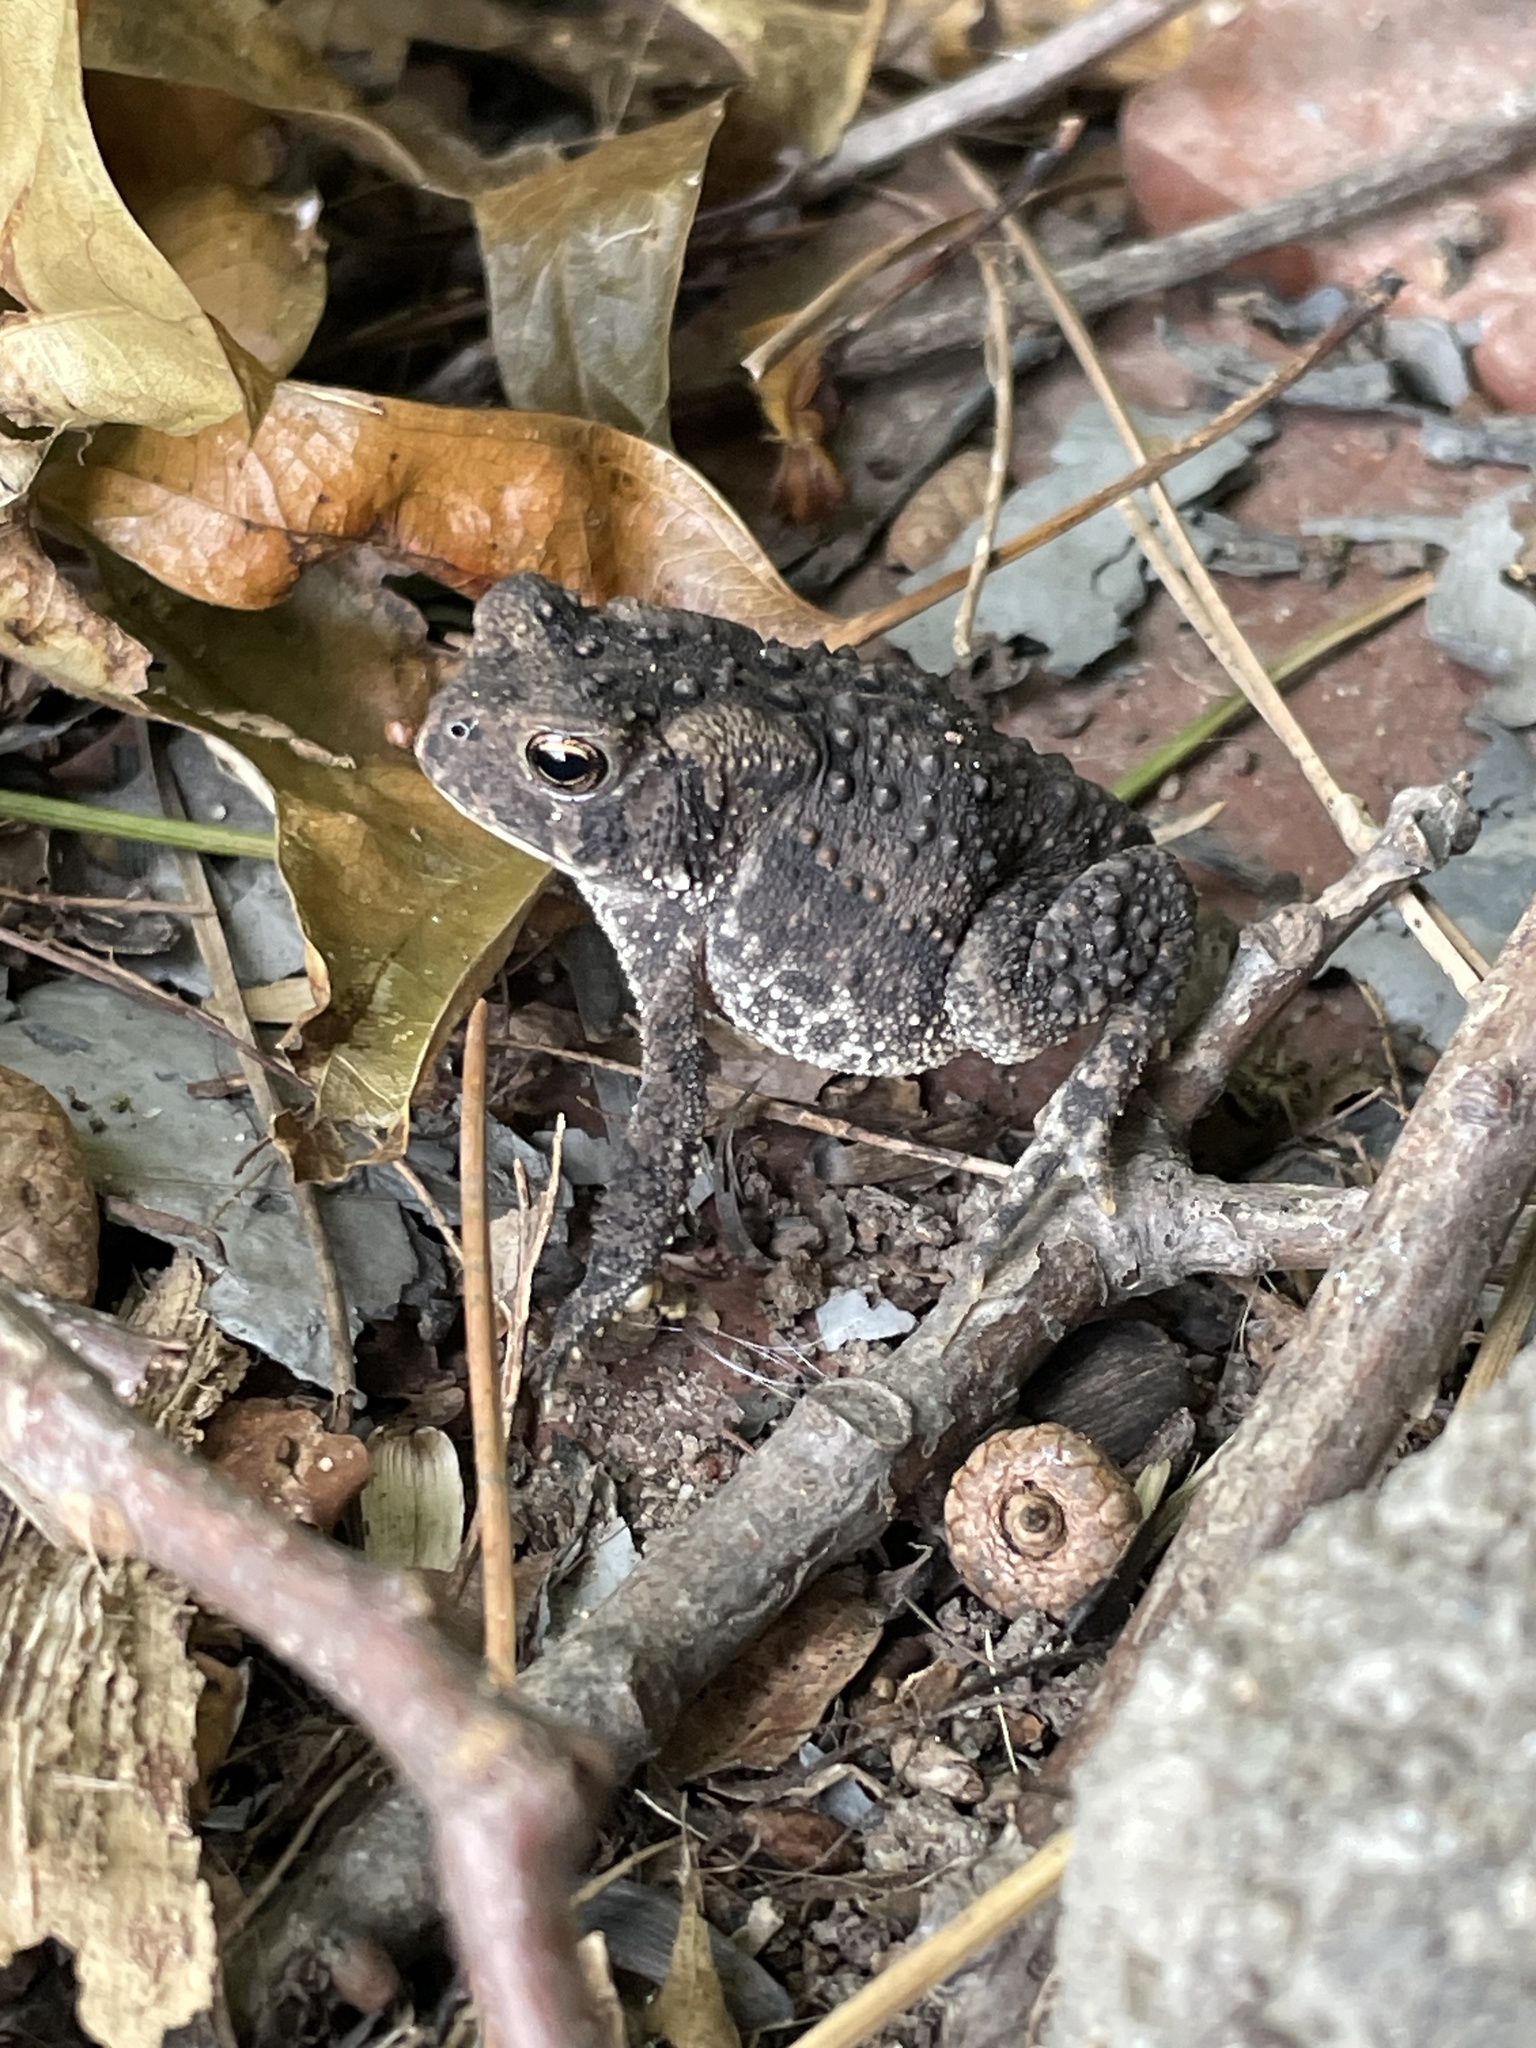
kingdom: Animalia
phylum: Chordata
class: Amphibia
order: Anura
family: Bufonidae
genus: Anaxyrus
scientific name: Anaxyrus americanus
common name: American toad
